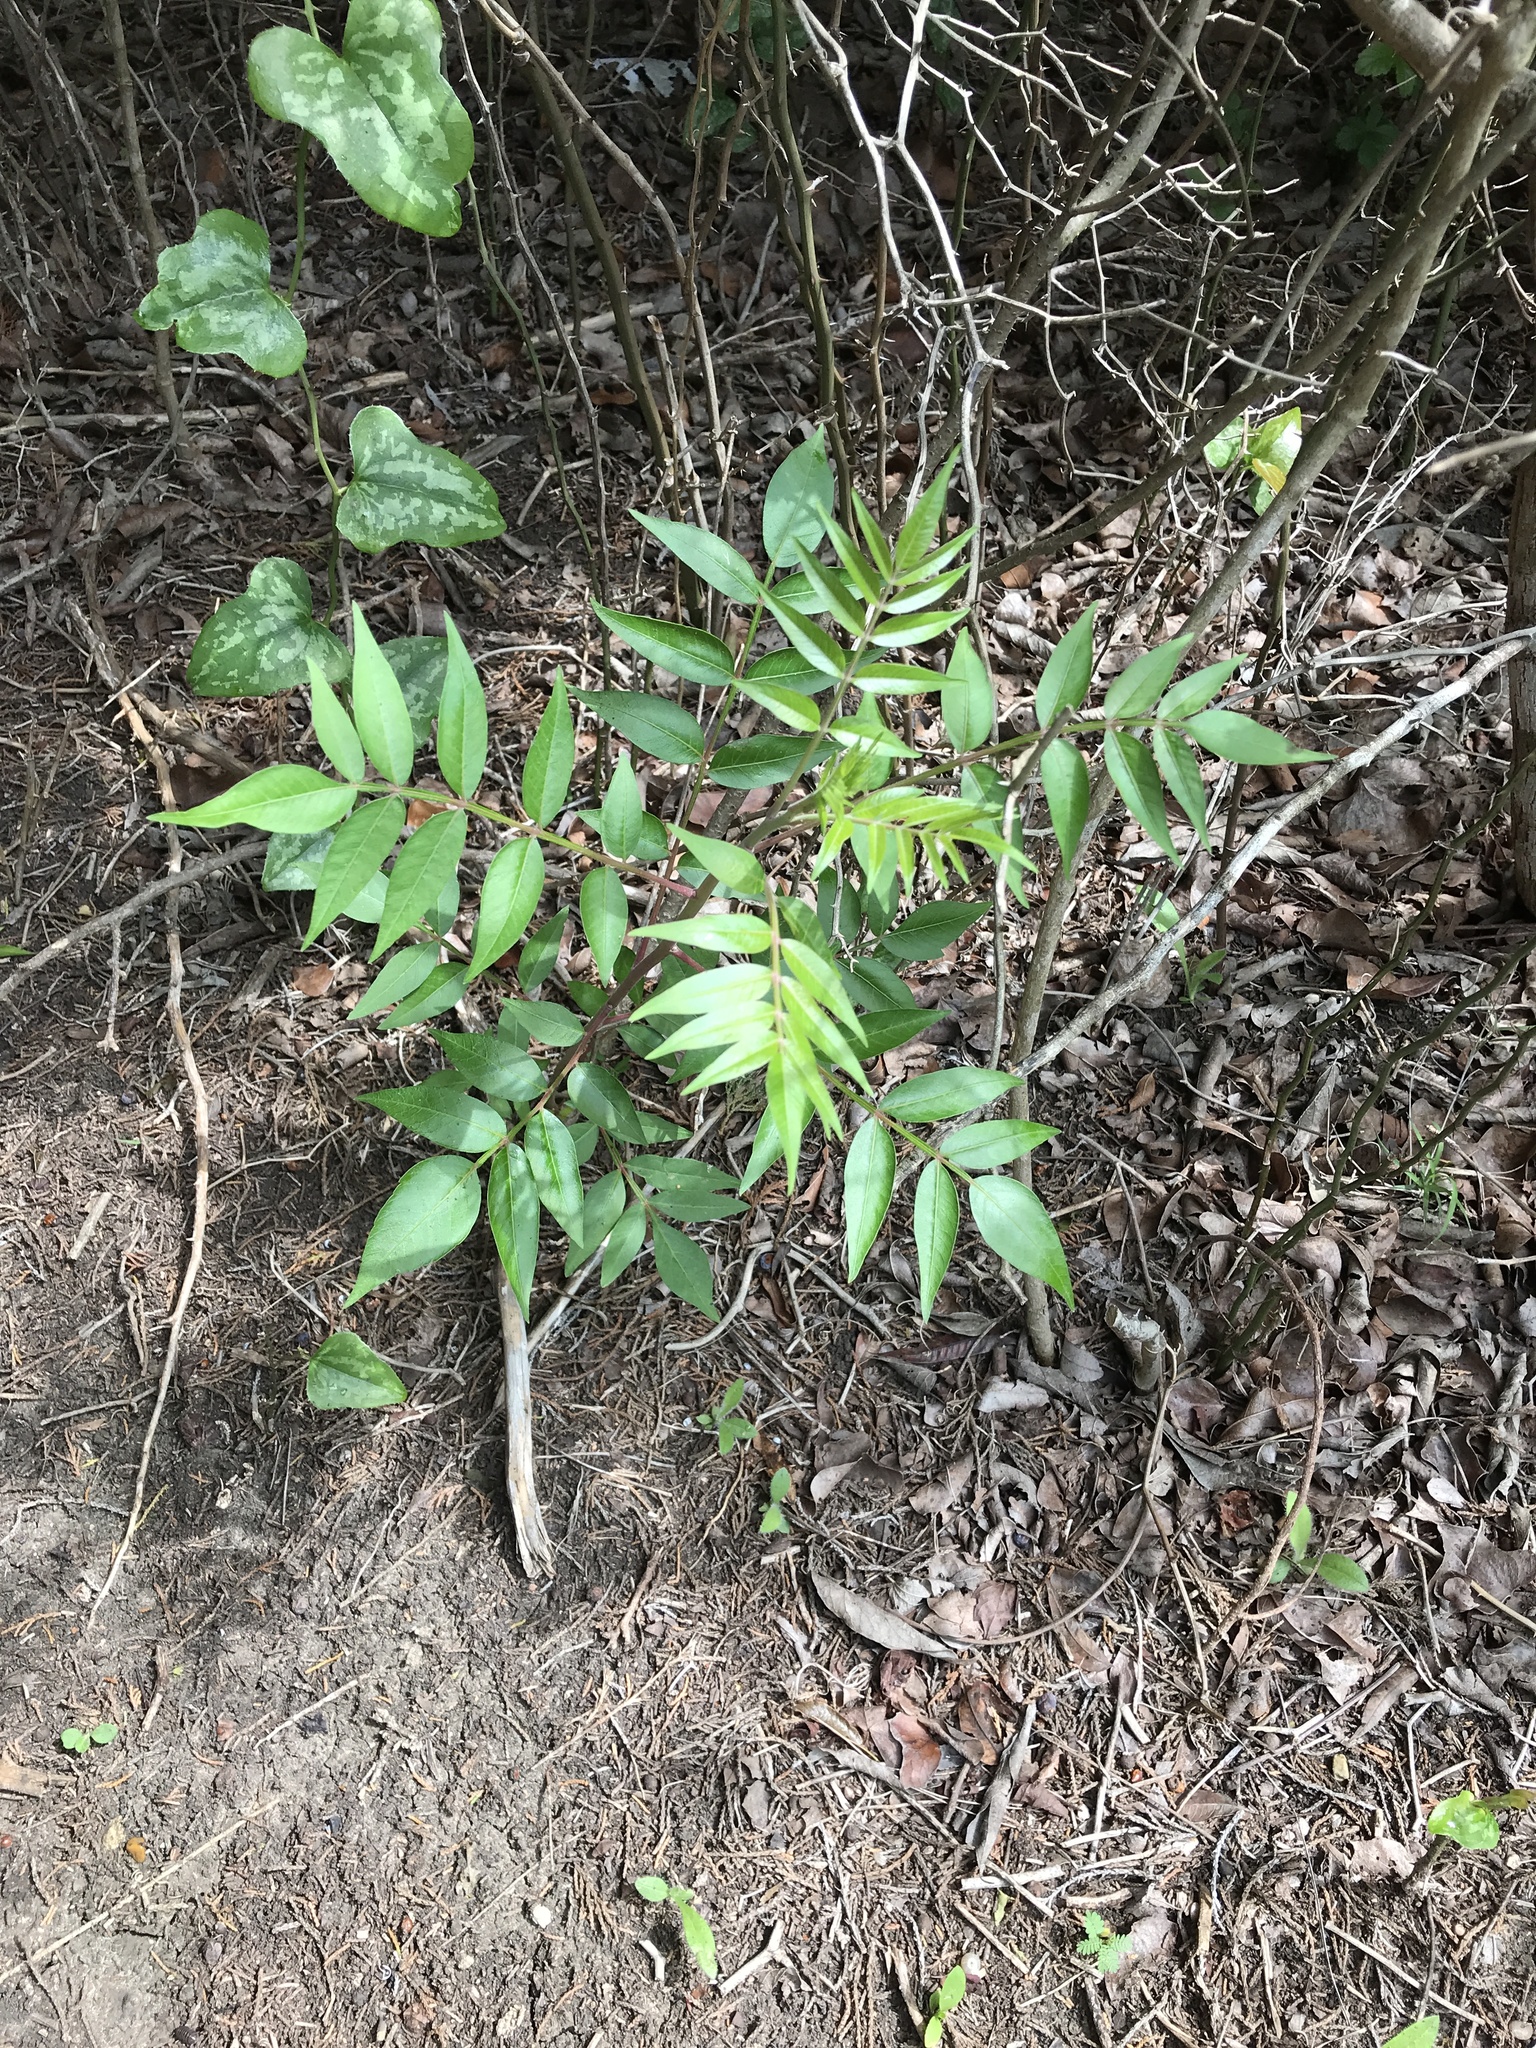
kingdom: Plantae
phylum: Tracheophyta
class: Magnoliopsida
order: Sapindales
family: Anacardiaceae
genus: Rhus
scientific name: Rhus lanceolata
